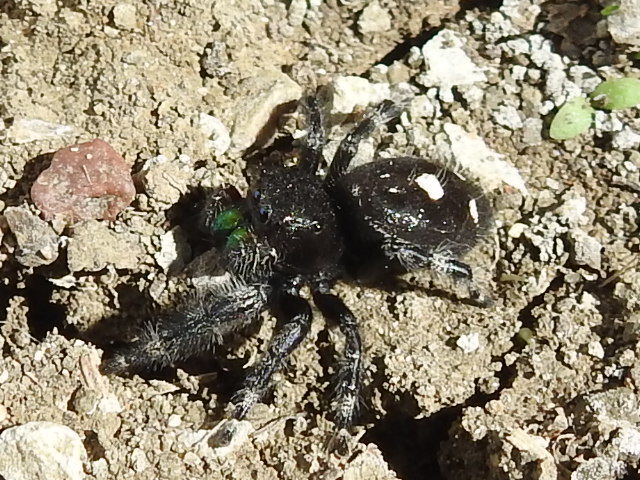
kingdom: Animalia
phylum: Arthropoda
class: Arachnida
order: Araneae
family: Salticidae
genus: Phidippus
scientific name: Phidippus audax
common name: Bold jumper
